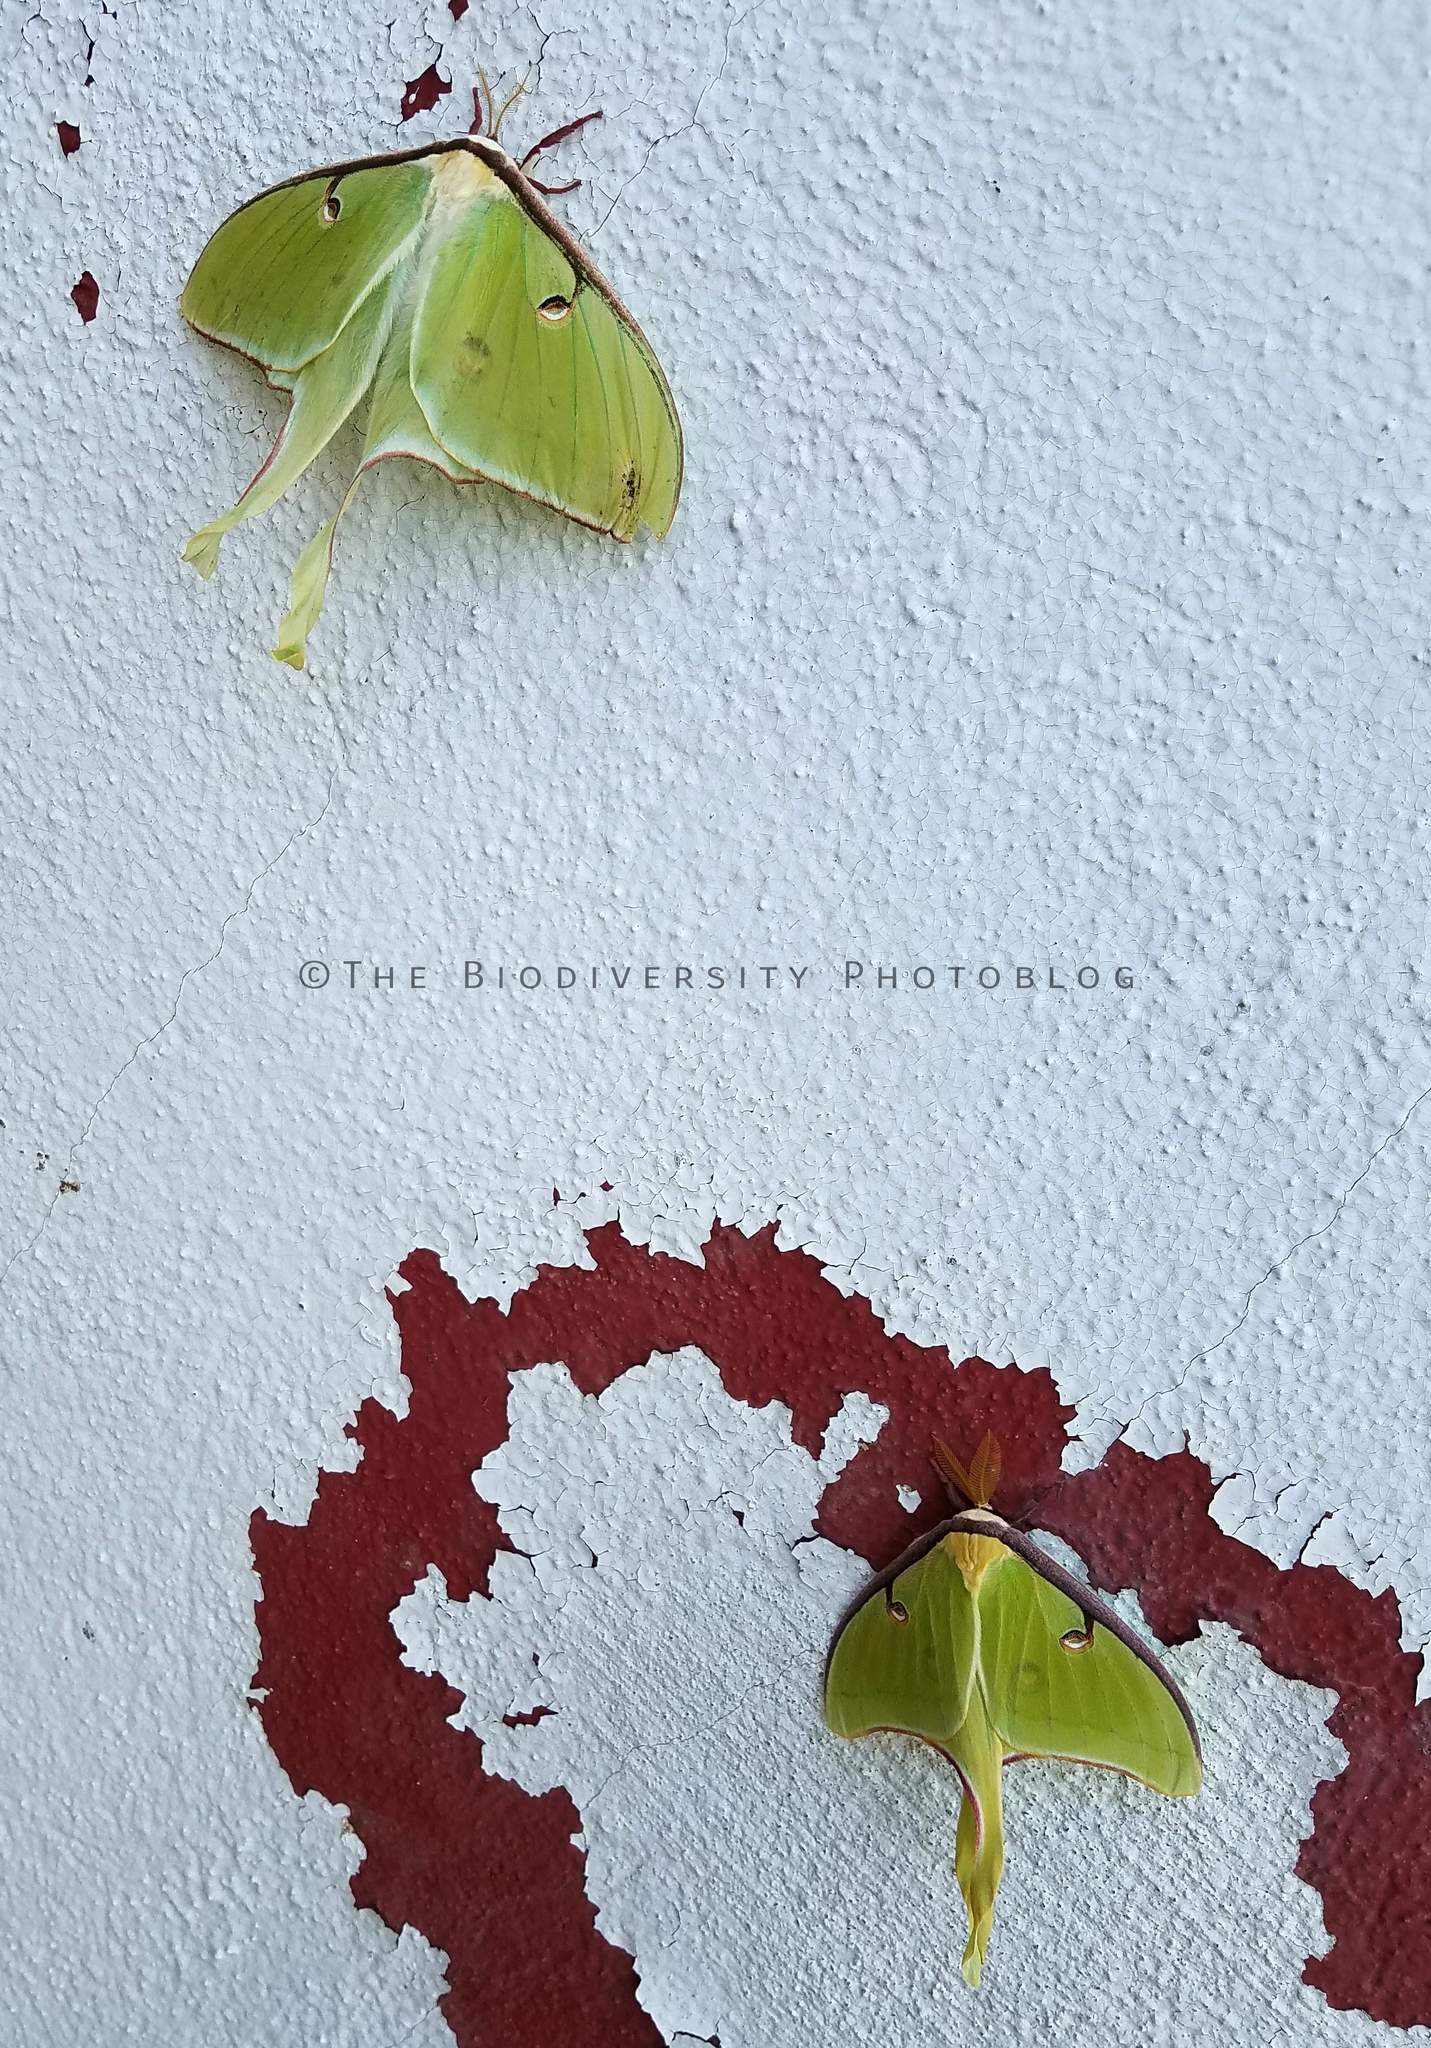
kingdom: Animalia
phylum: Arthropoda
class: Insecta
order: Lepidoptera
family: Saturniidae
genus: Actias
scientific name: Actias luna
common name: Luna moth
